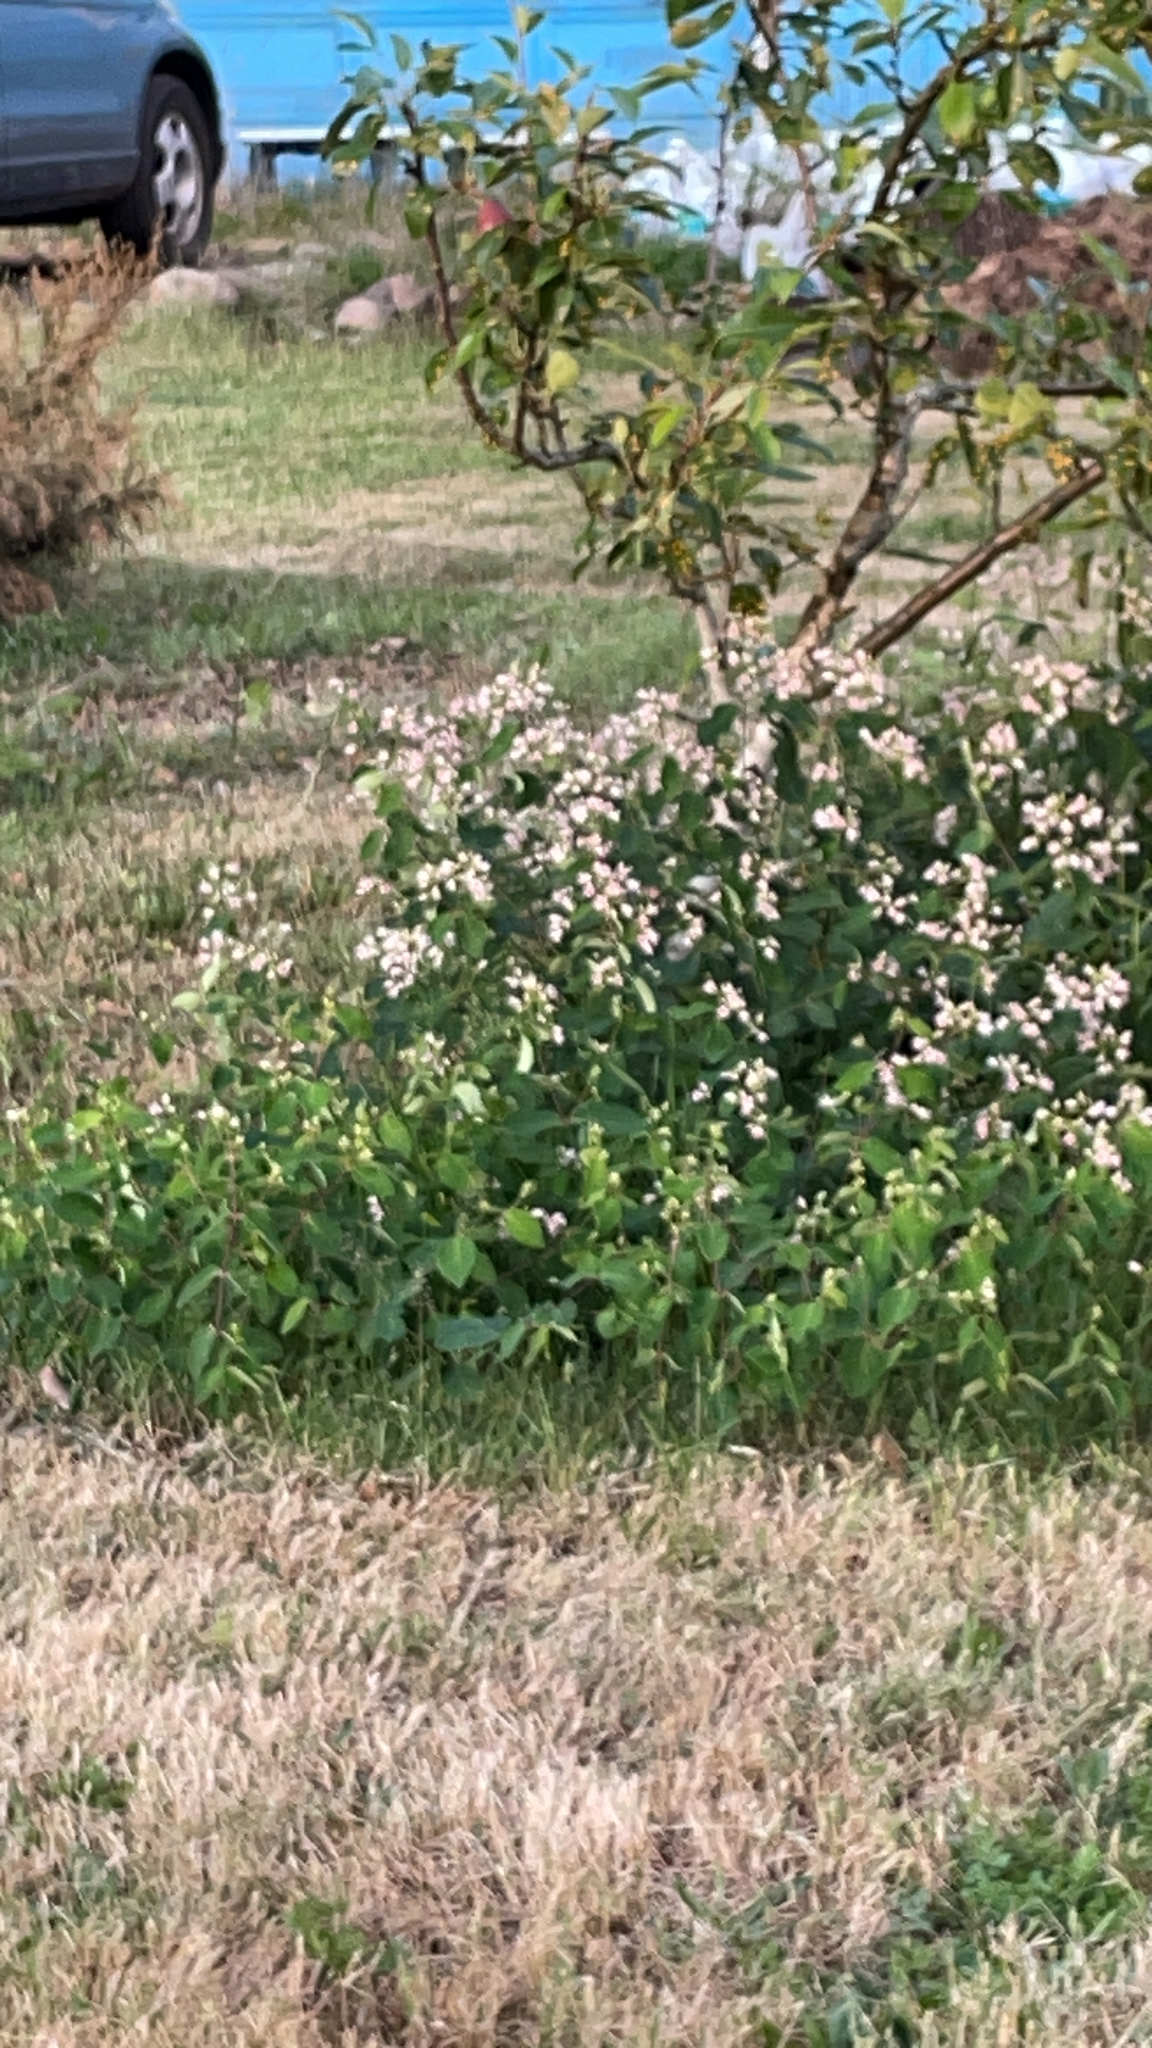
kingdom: Plantae
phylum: Tracheophyta
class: Magnoliopsida
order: Gentianales
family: Apocynaceae
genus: Apocynum
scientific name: Apocynum androsaemifolium
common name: Spreading dogbane
